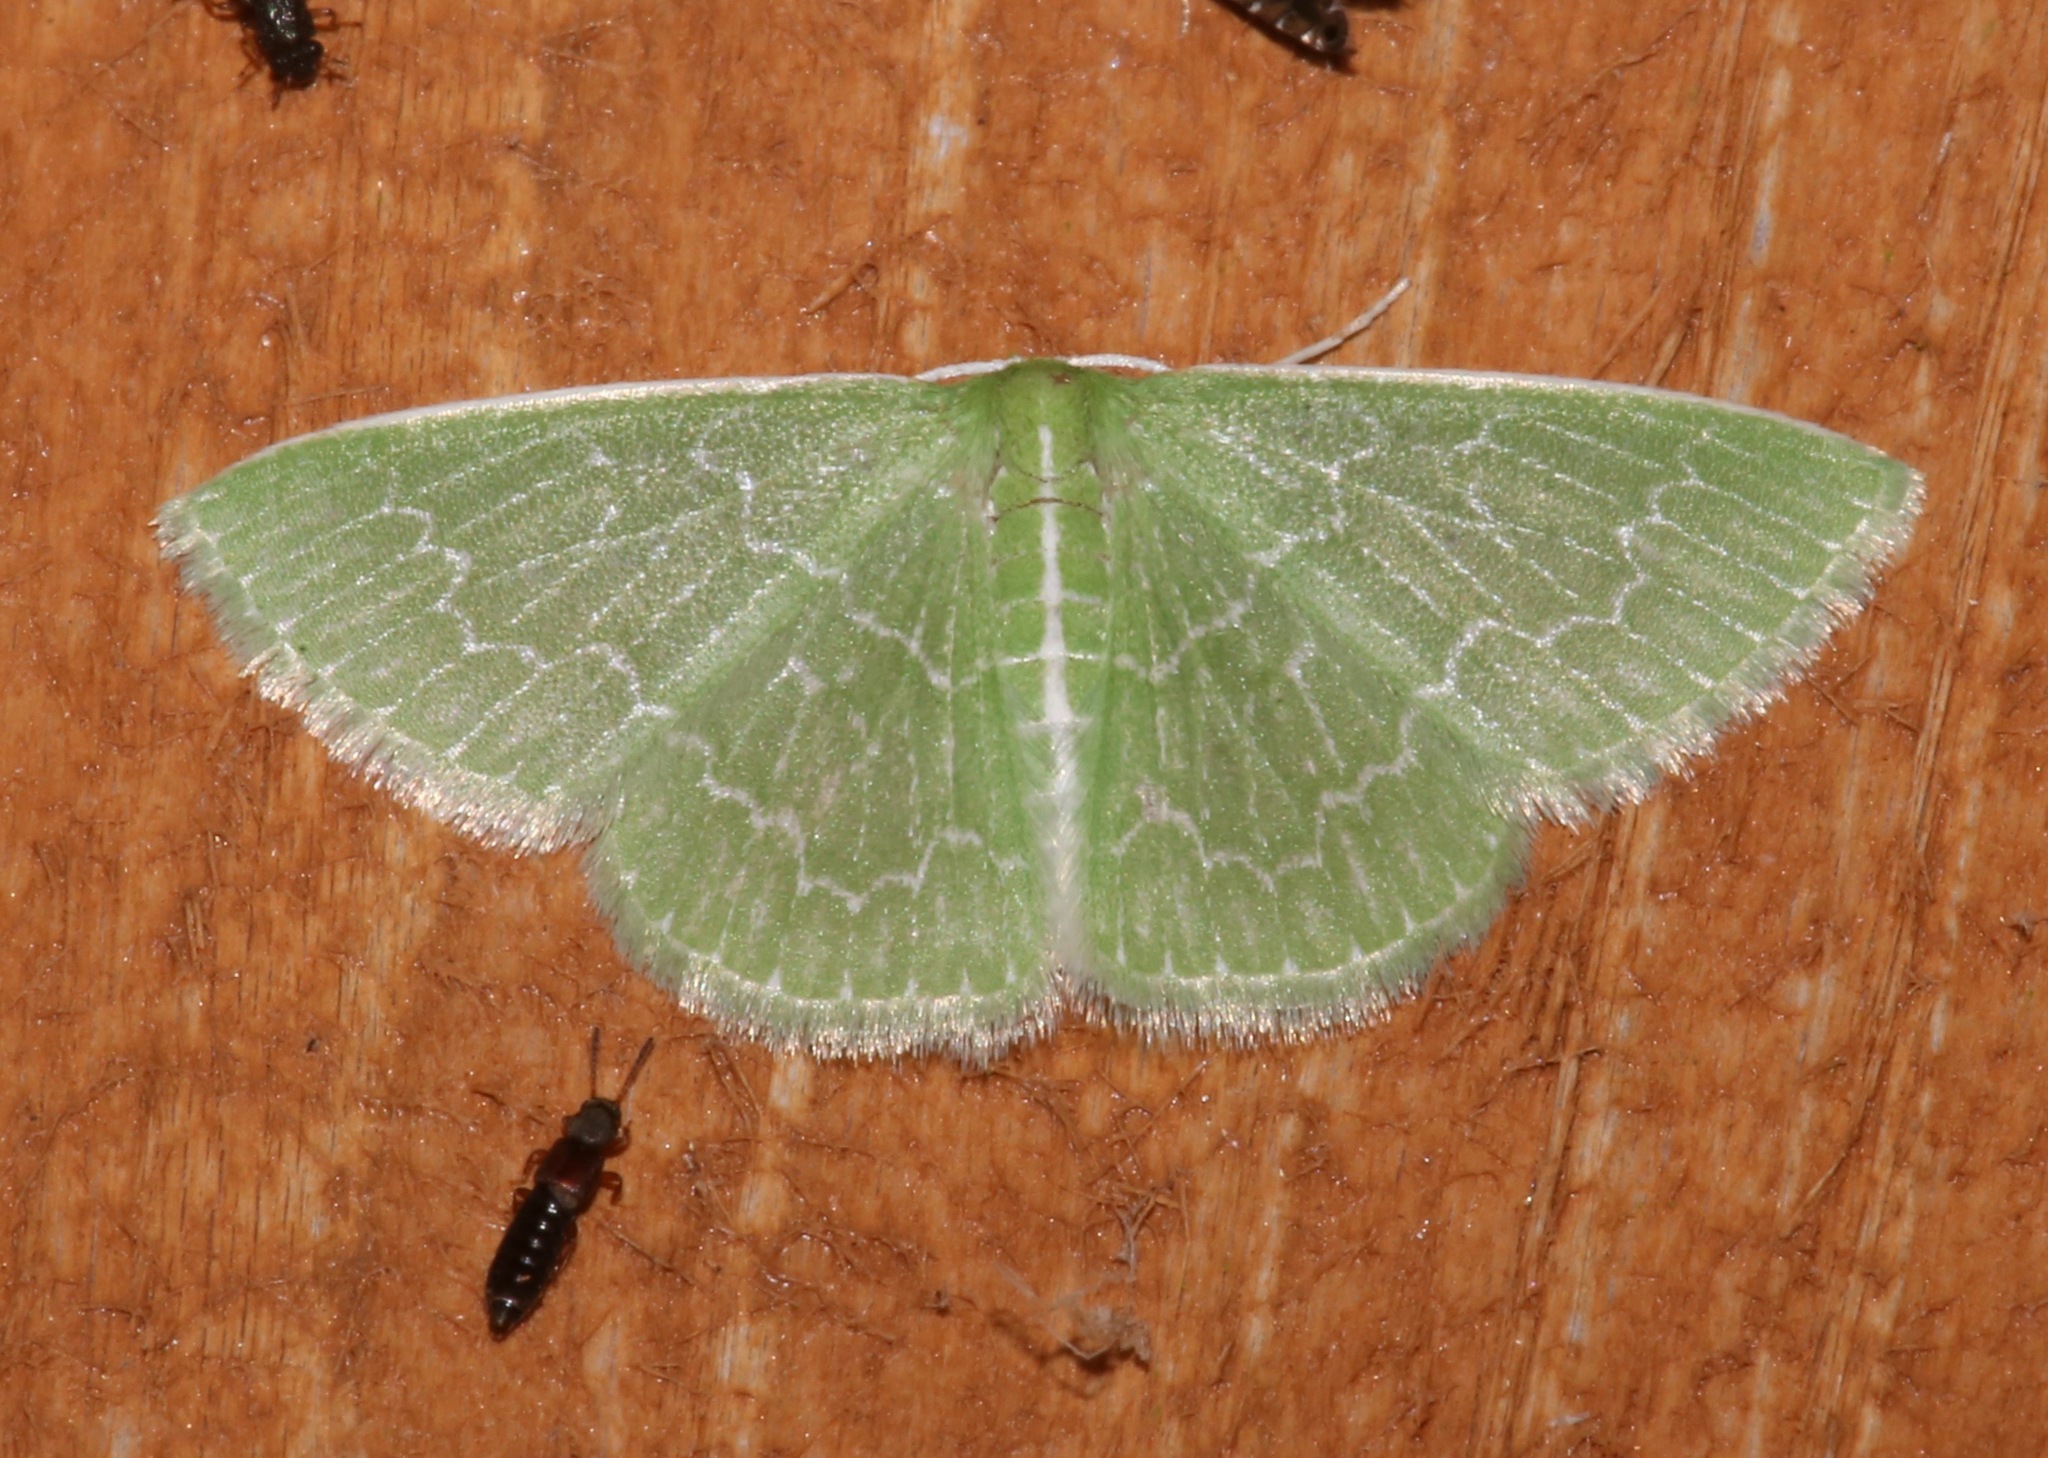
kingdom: Animalia
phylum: Arthropoda
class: Insecta
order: Lepidoptera
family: Geometridae
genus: Synchlora
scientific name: Synchlora frondaria
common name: Southern emerald
